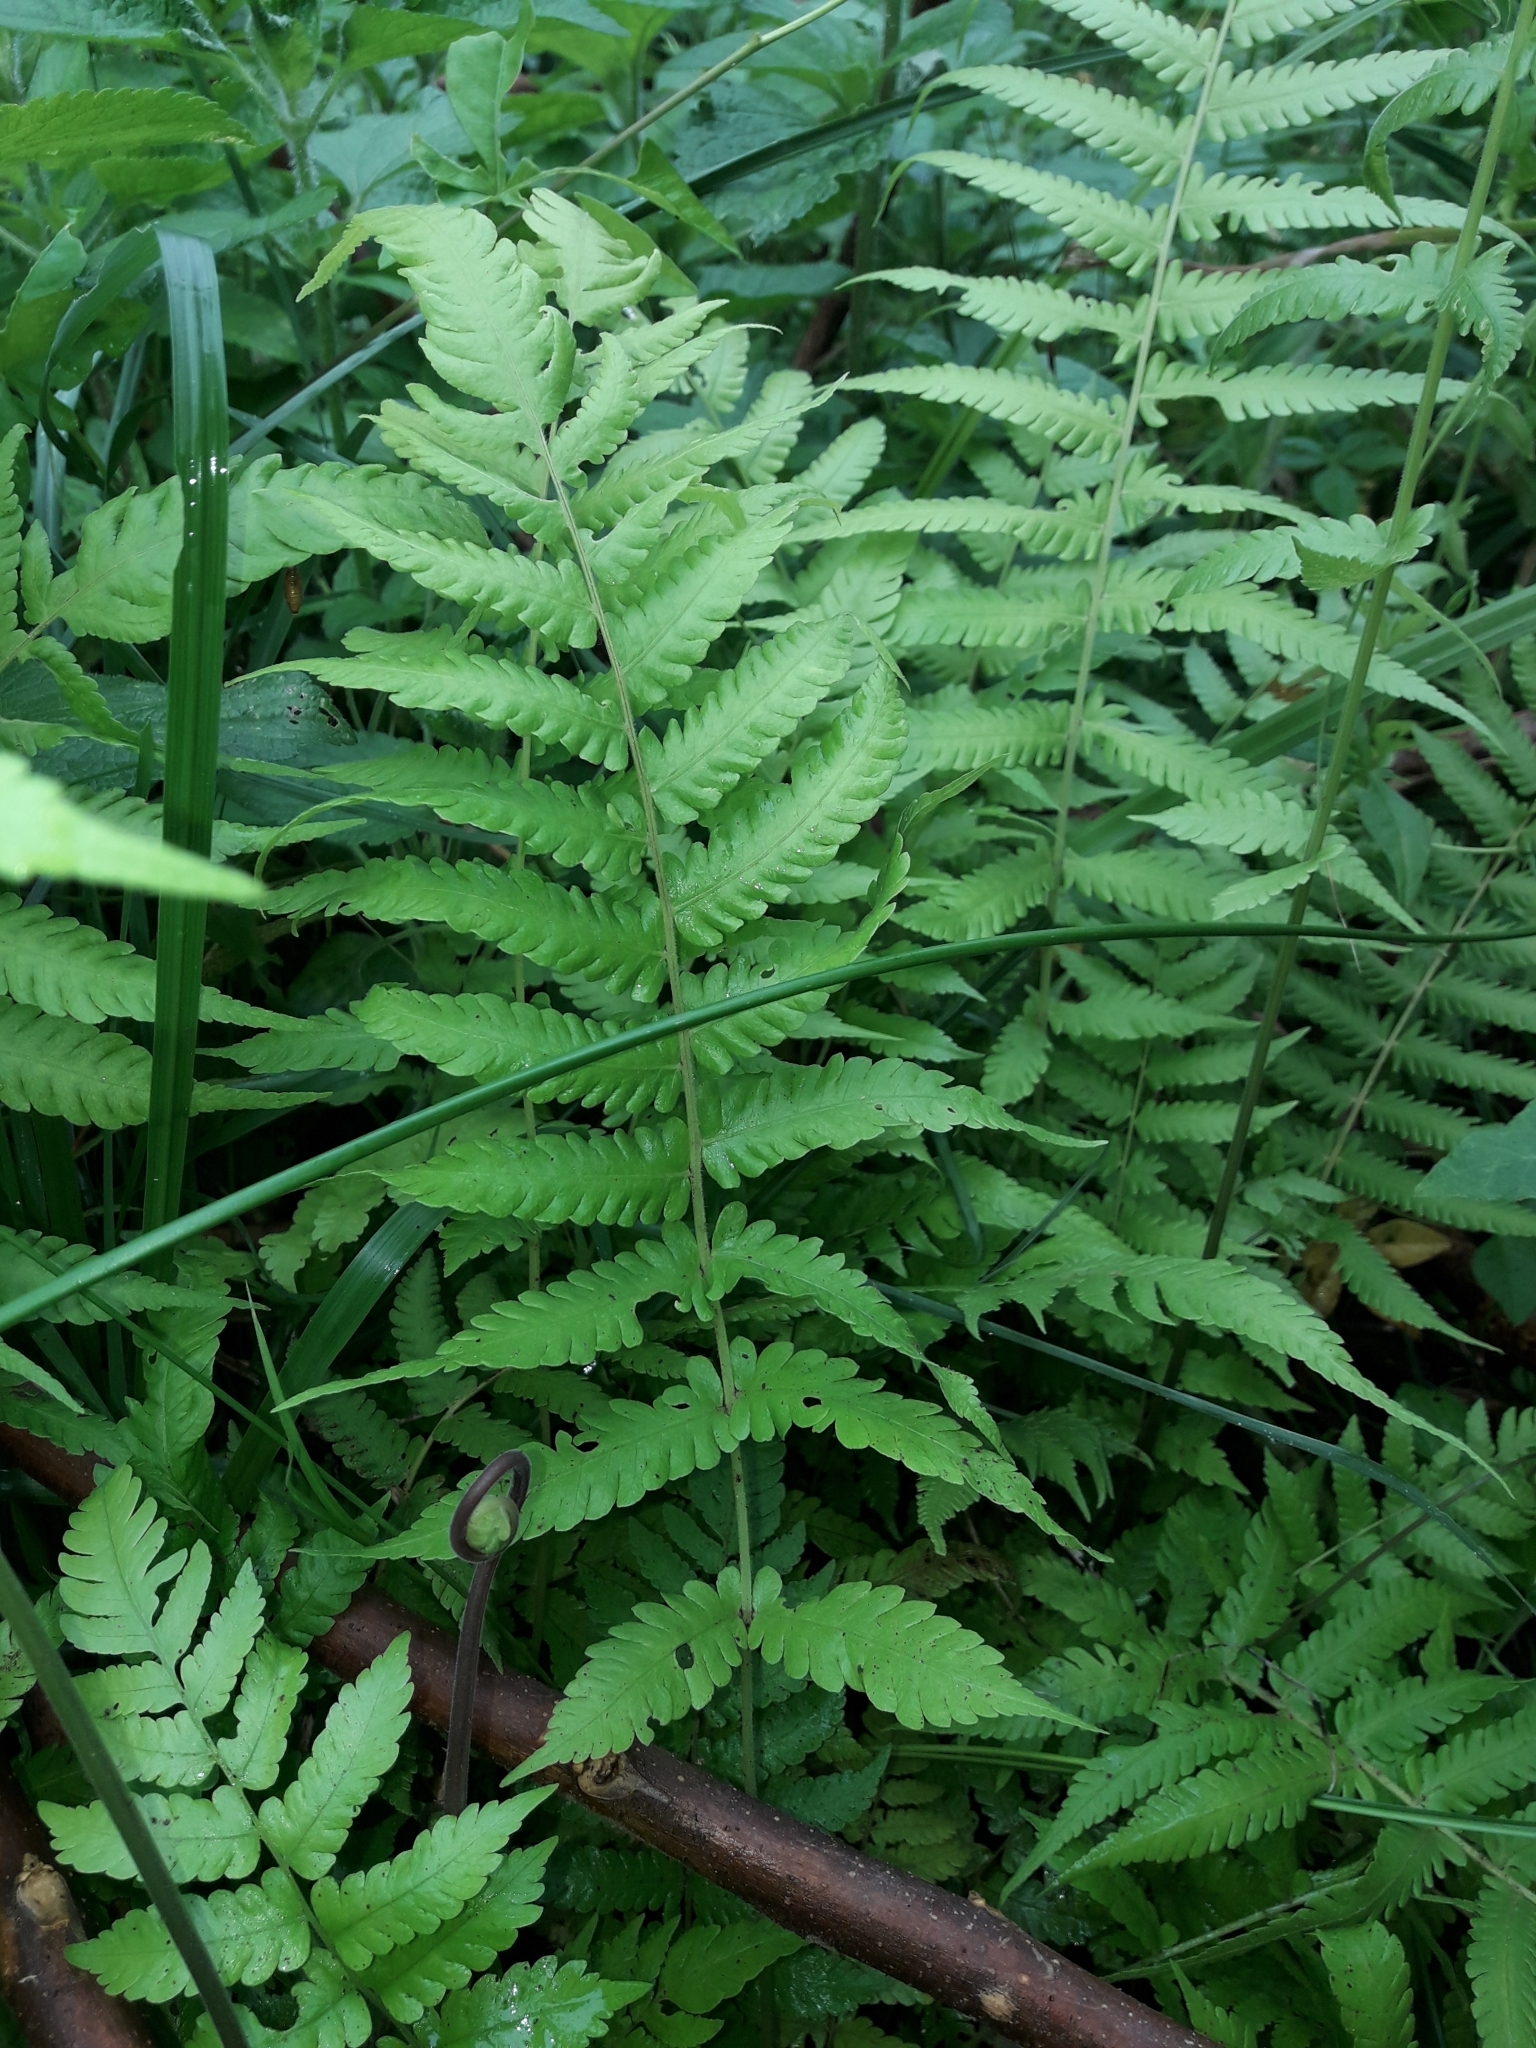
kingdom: Plantae
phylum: Tracheophyta
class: Polypodiopsida
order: Polypodiales
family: Thelypteridaceae
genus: Christella
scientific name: Christella parasitica
